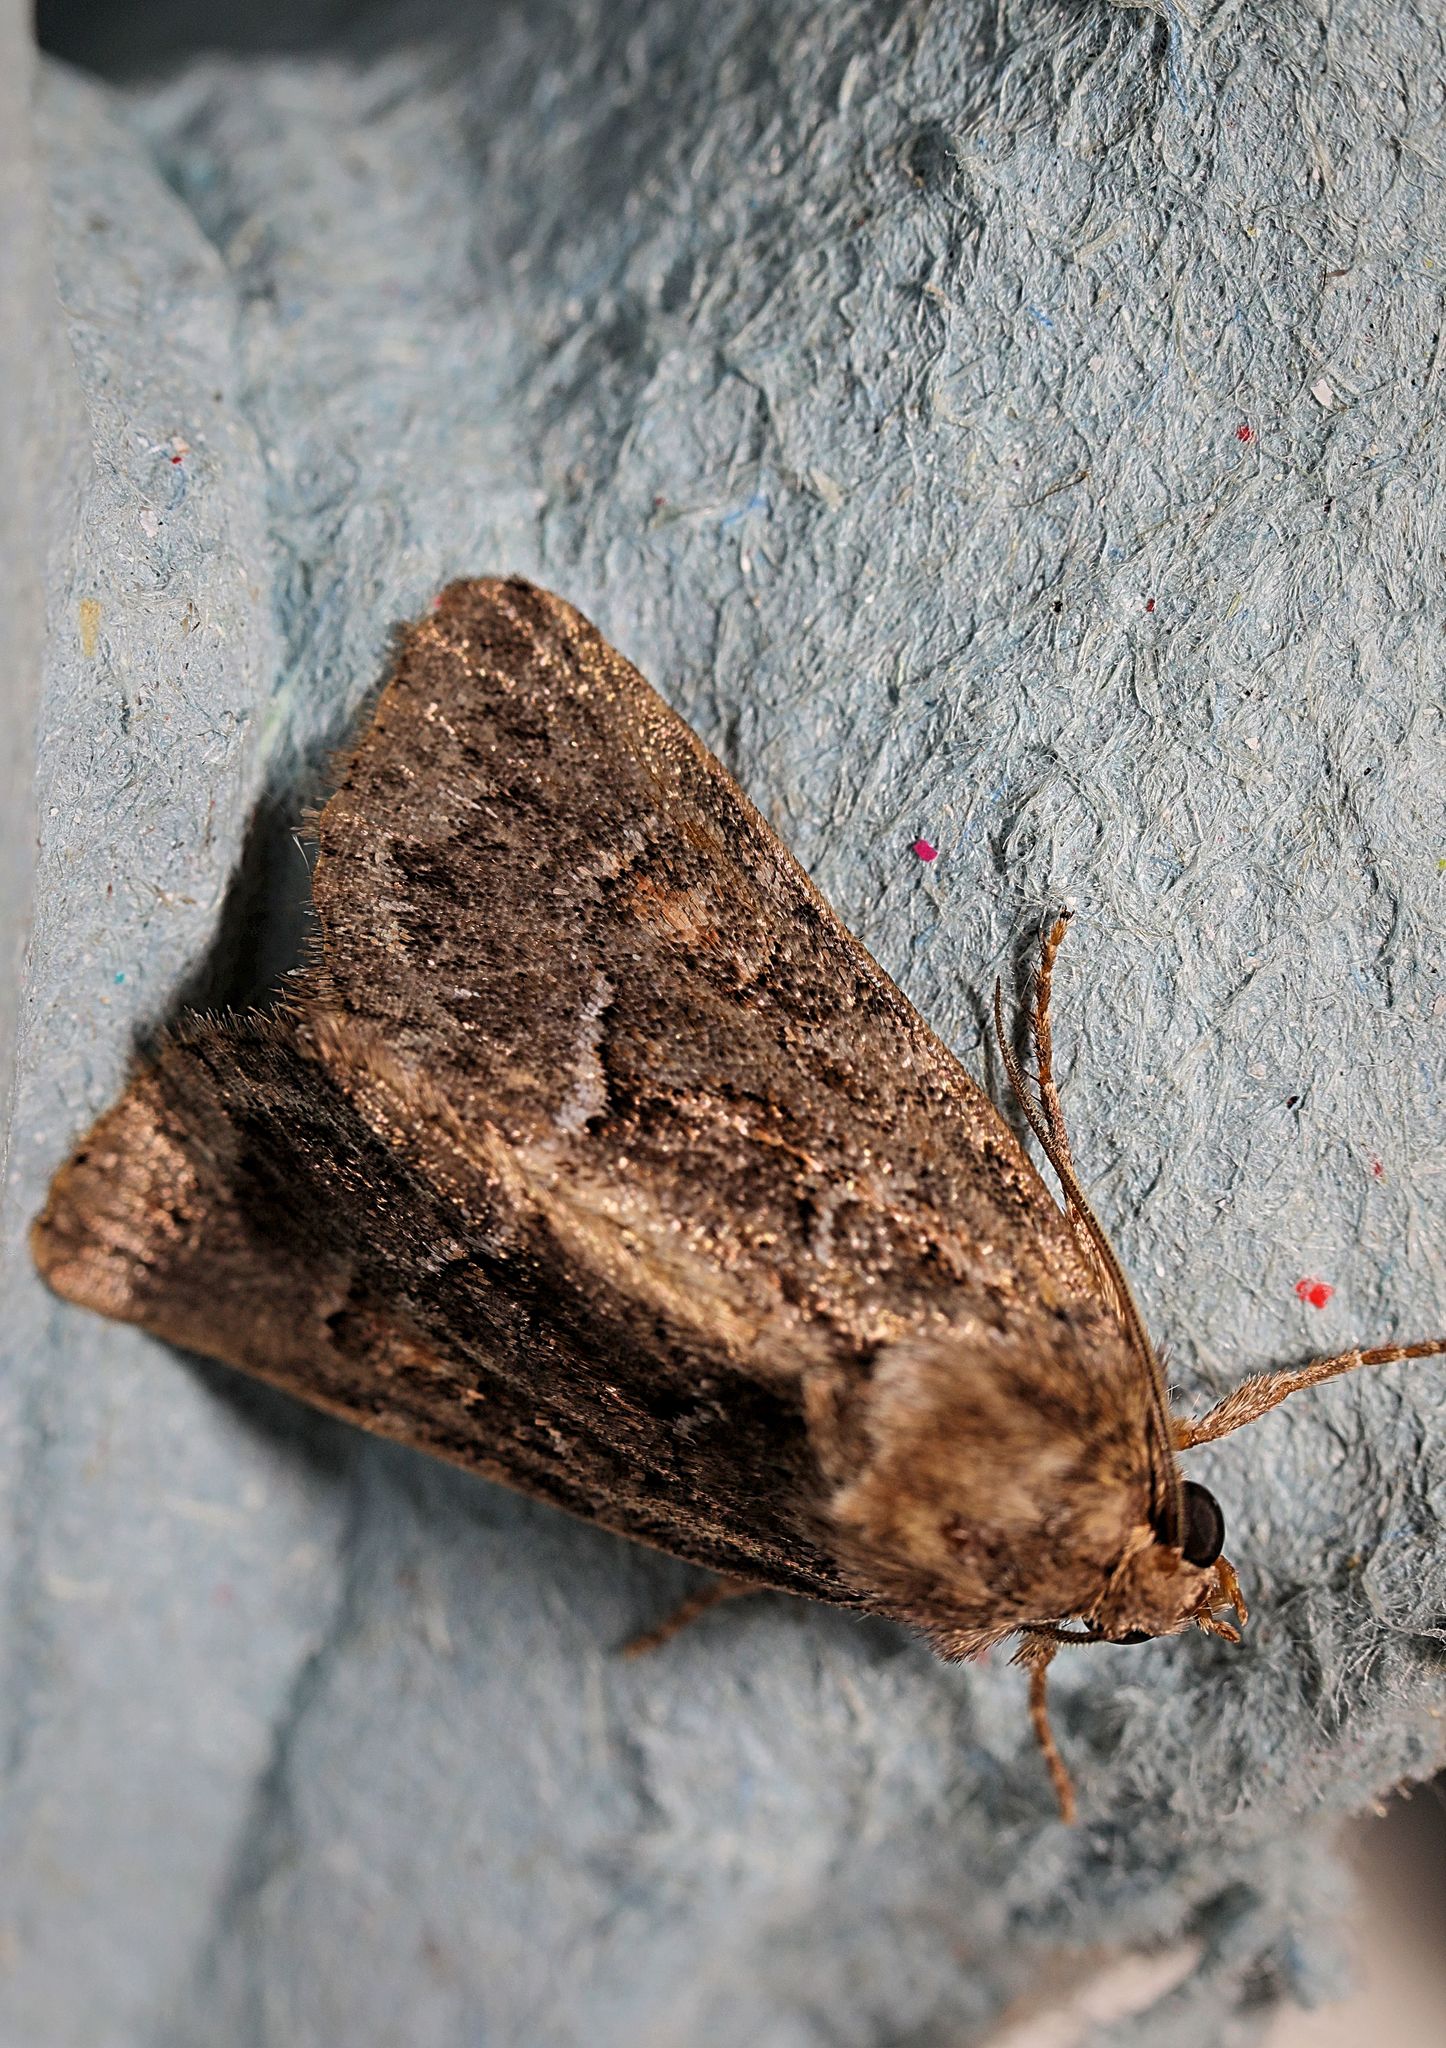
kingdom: Animalia
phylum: Arthropoda
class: Insecta
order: Lepidoptera
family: Noctuidae
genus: Thalpophila
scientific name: Thalpophila matura
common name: Straw underwing
